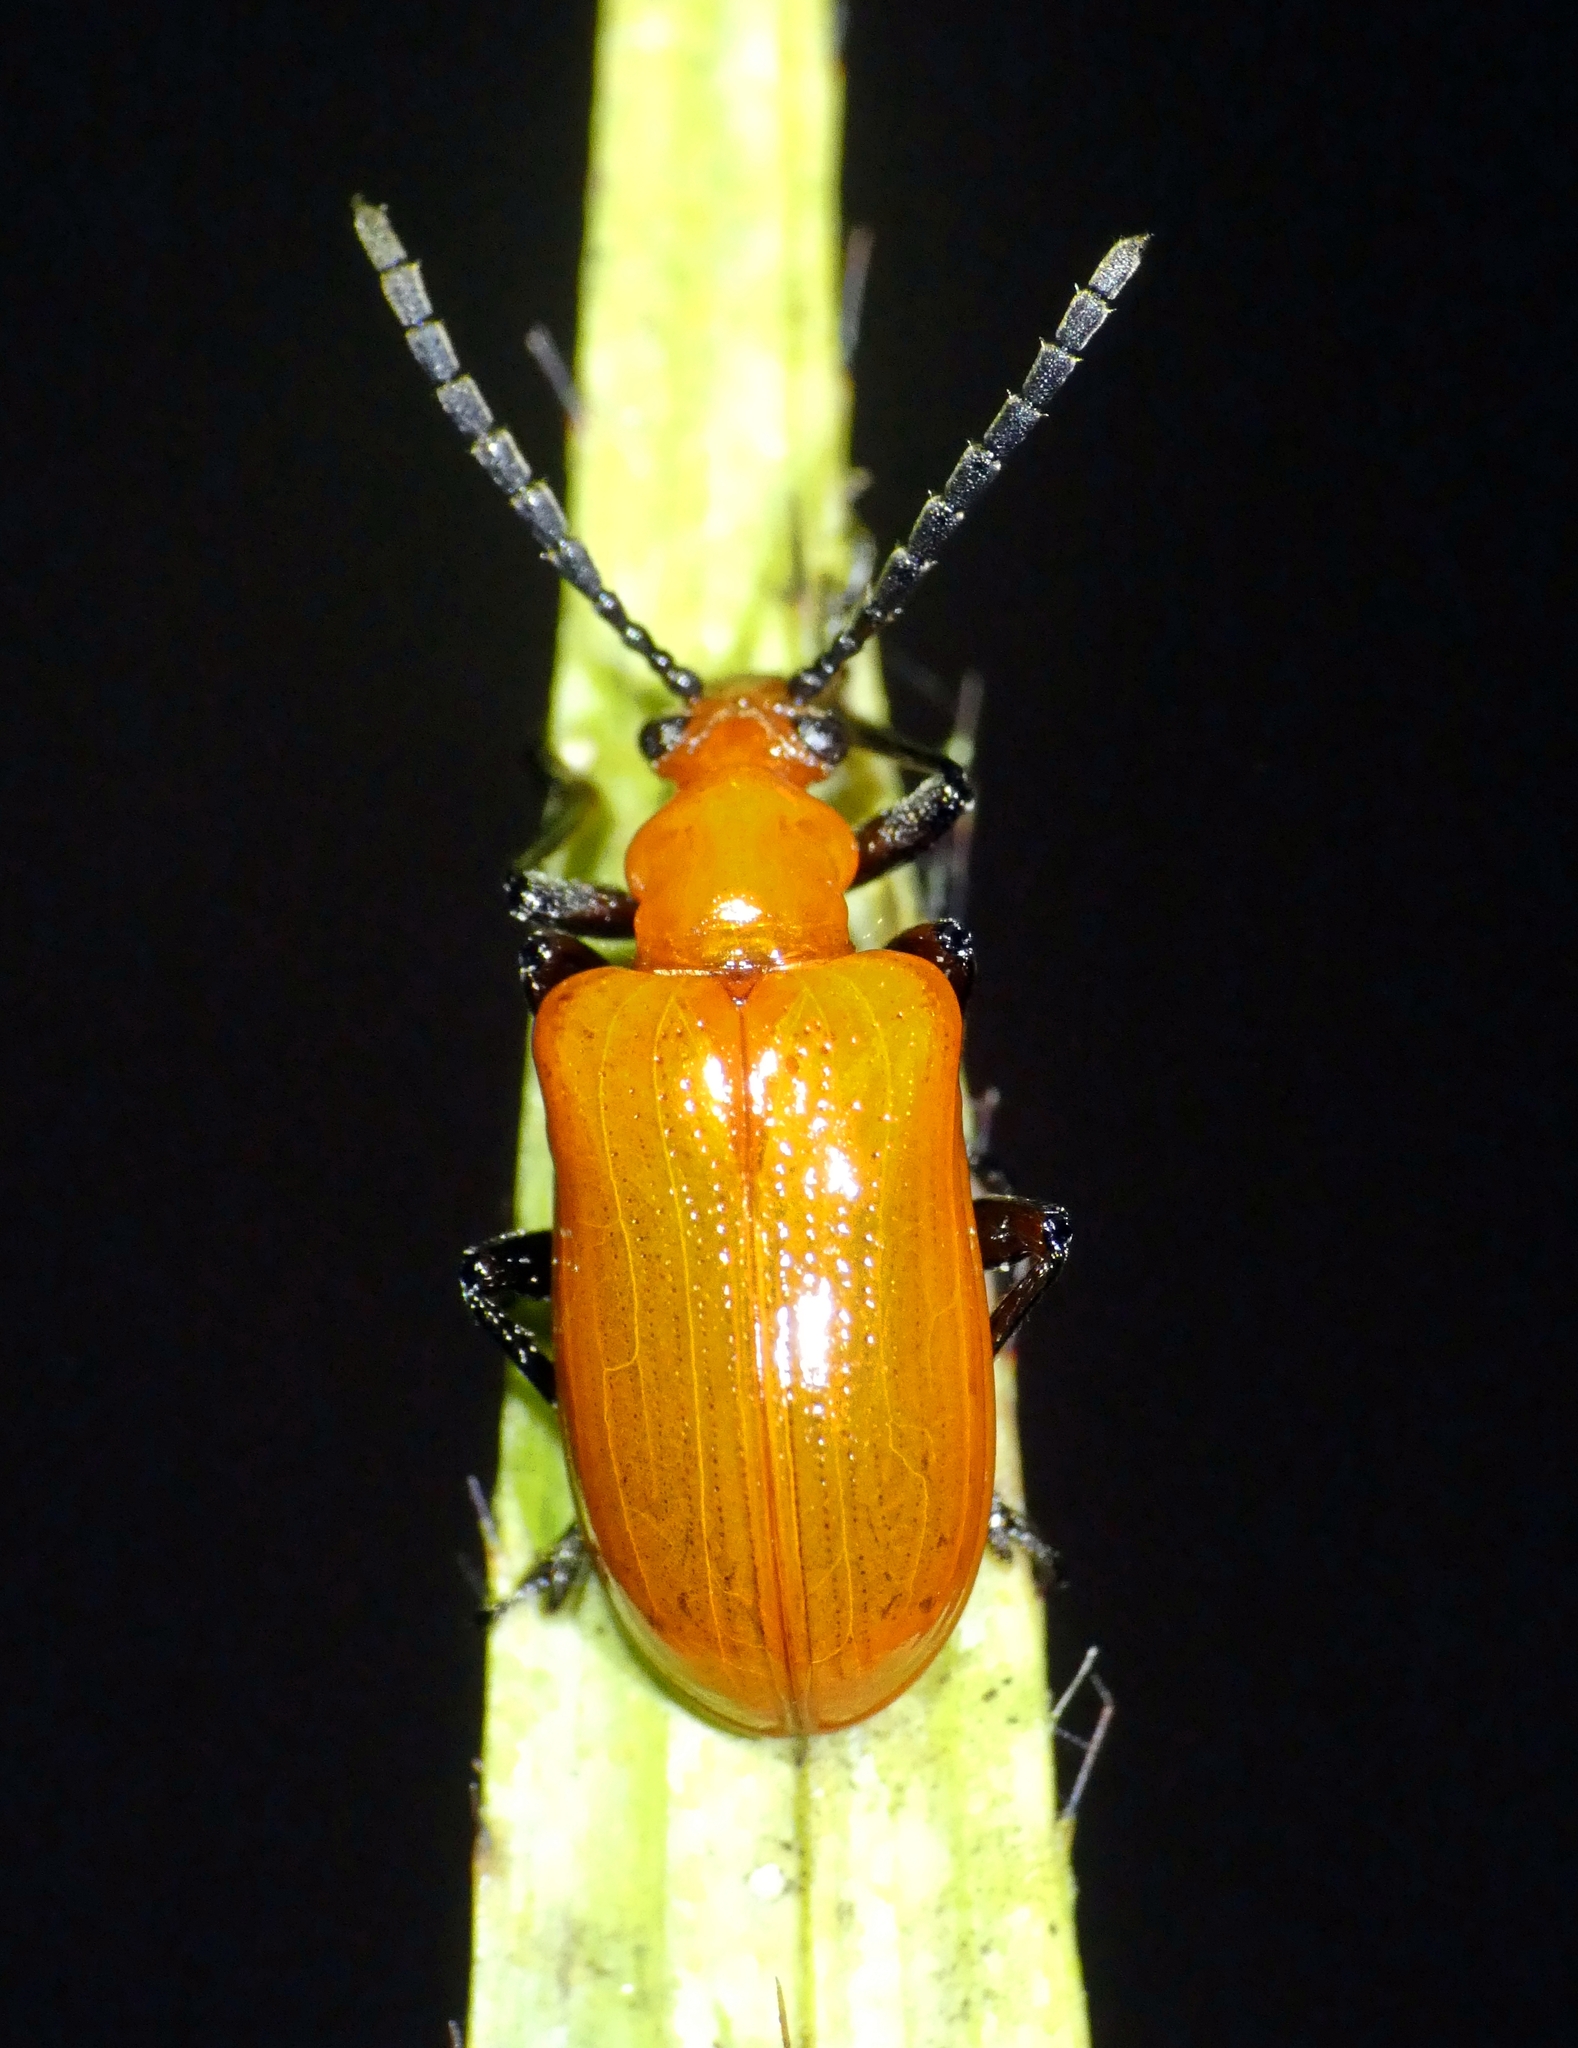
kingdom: Animalia
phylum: Arthropoda
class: Insecta
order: Coleoptera
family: Chrysomelidae
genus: Lilioceris
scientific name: Lilioceris
